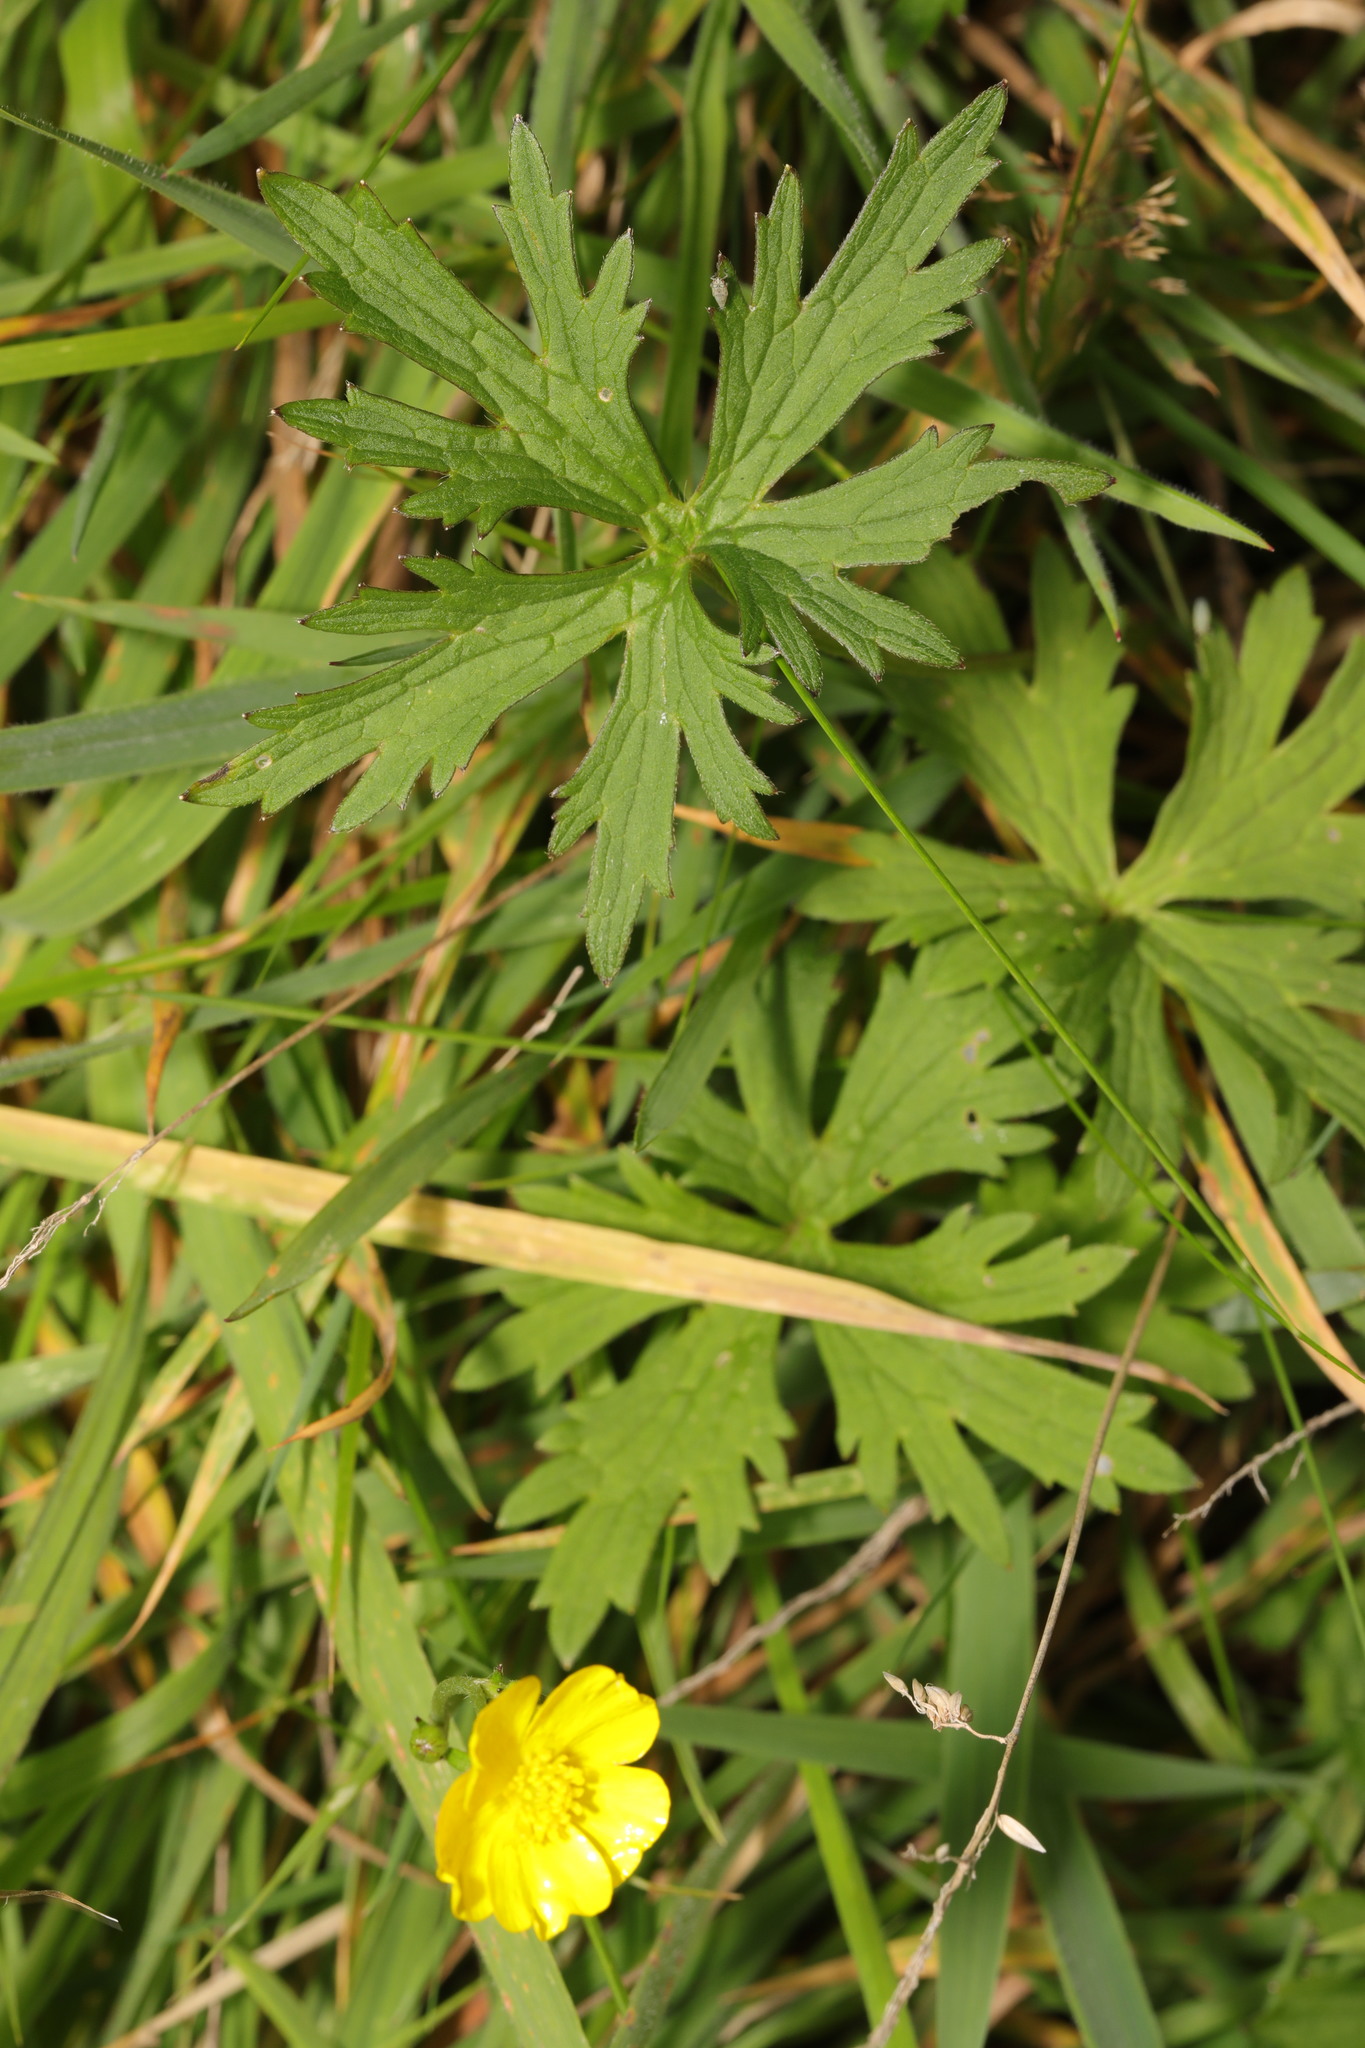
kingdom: Plantae
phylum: Tracheophyta
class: Magnoliopsida
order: Ranunculales
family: Ranunculaceae
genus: Ranunculus
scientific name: Ranunculus acris
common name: Meadow buttercup
